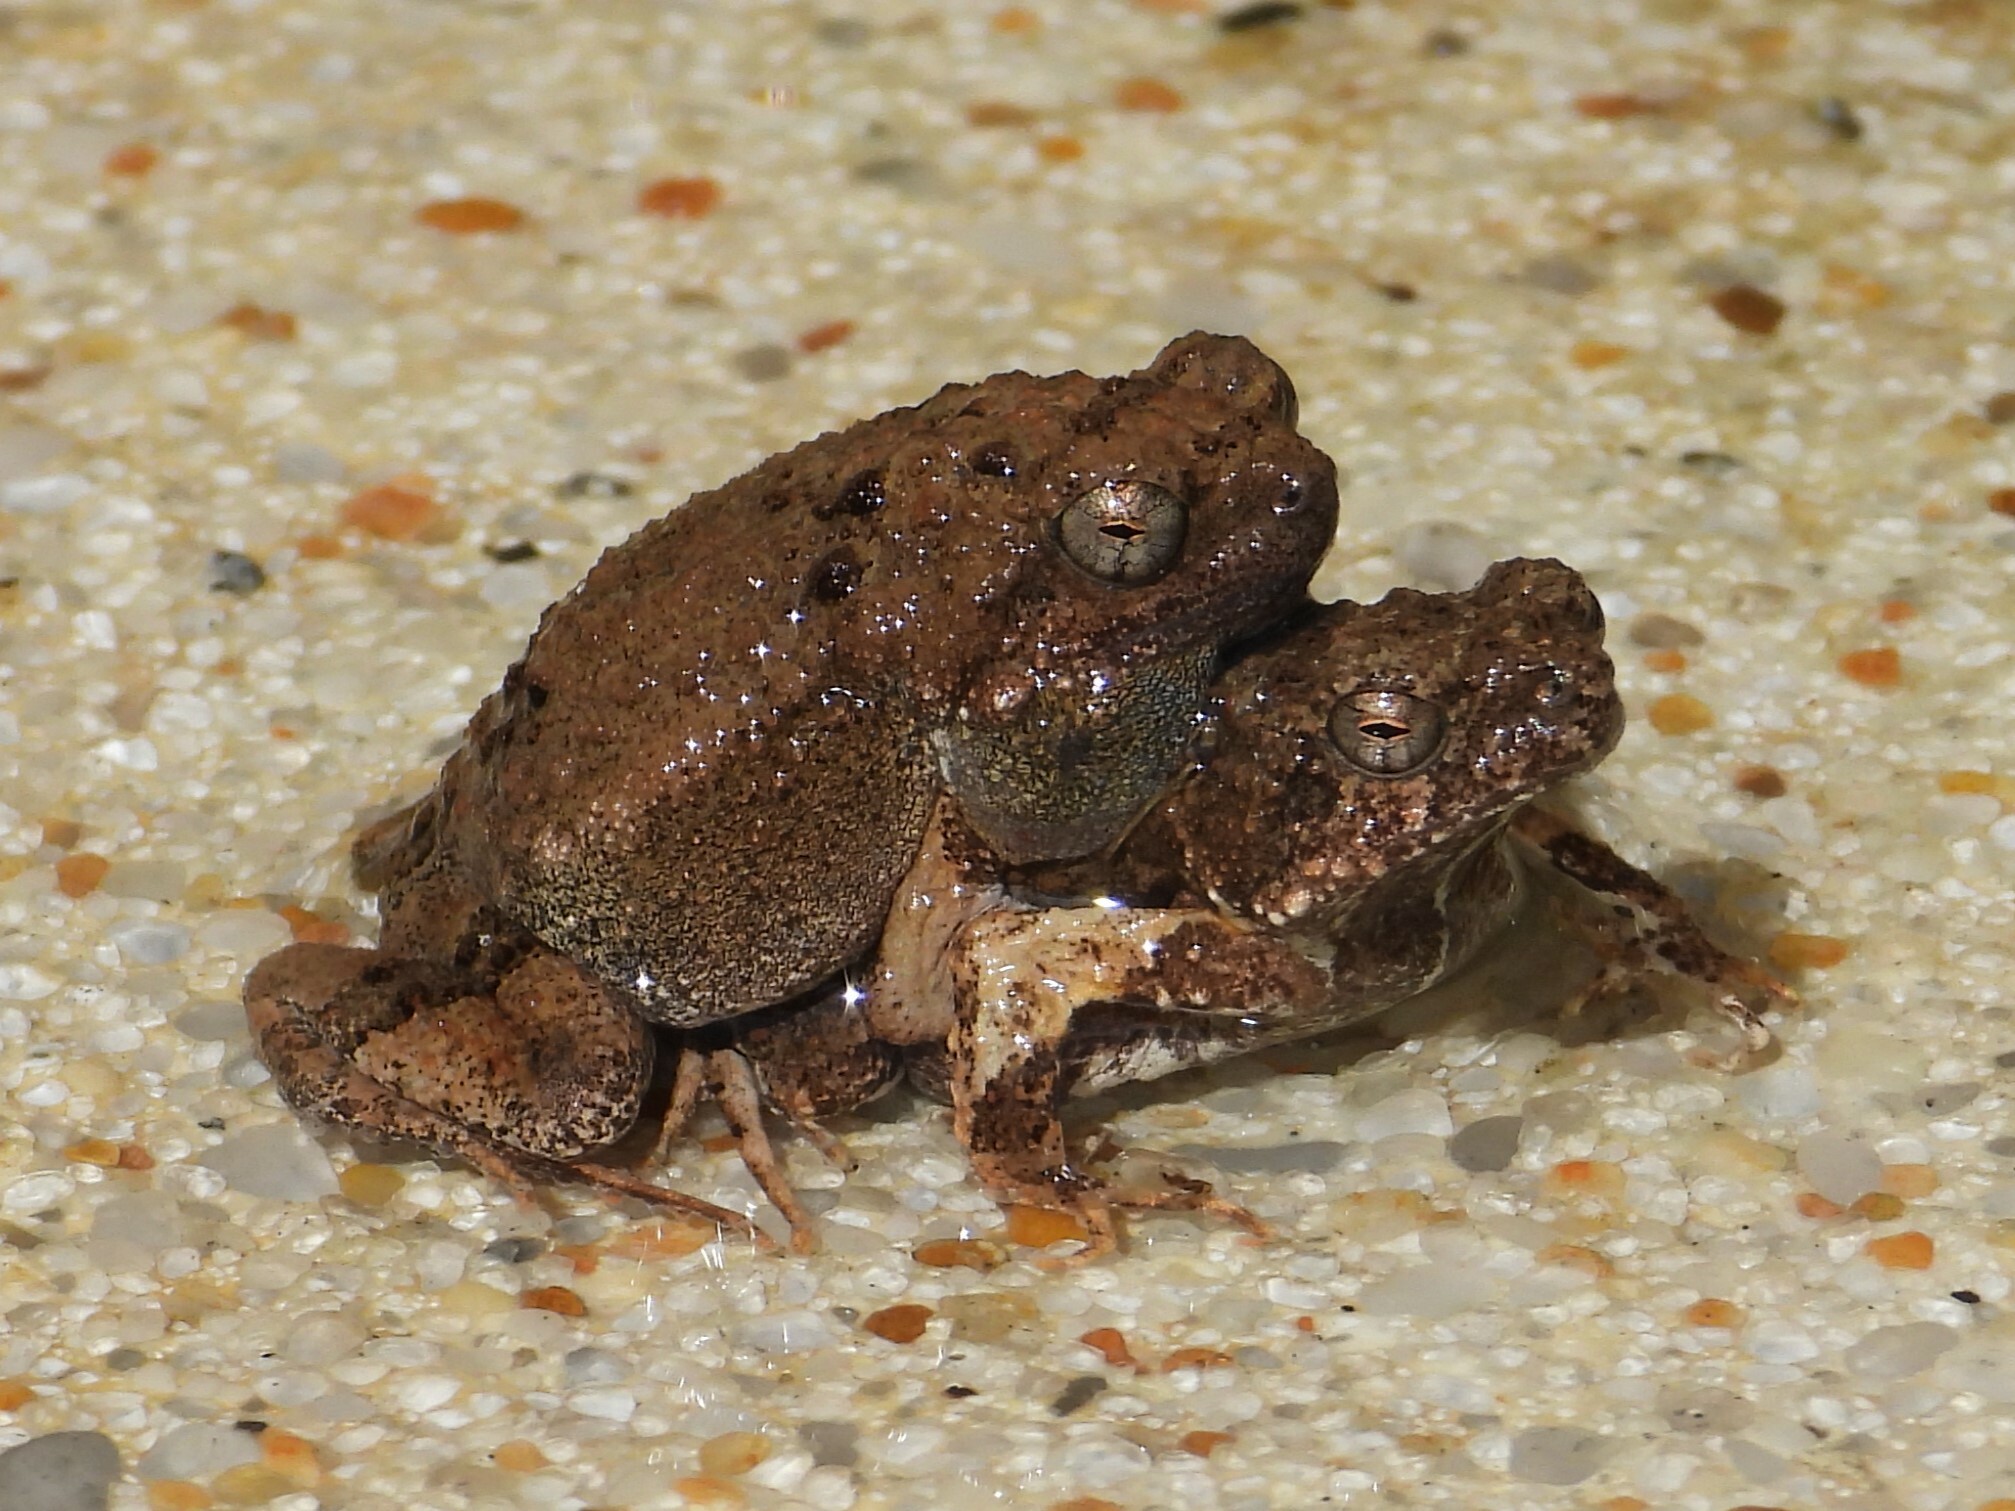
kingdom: Animalia
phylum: Chordata
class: Amphibia
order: Anura
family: Leptodactylidae
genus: Engystomops
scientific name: Engystomops pustulosus
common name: Tungara frog
